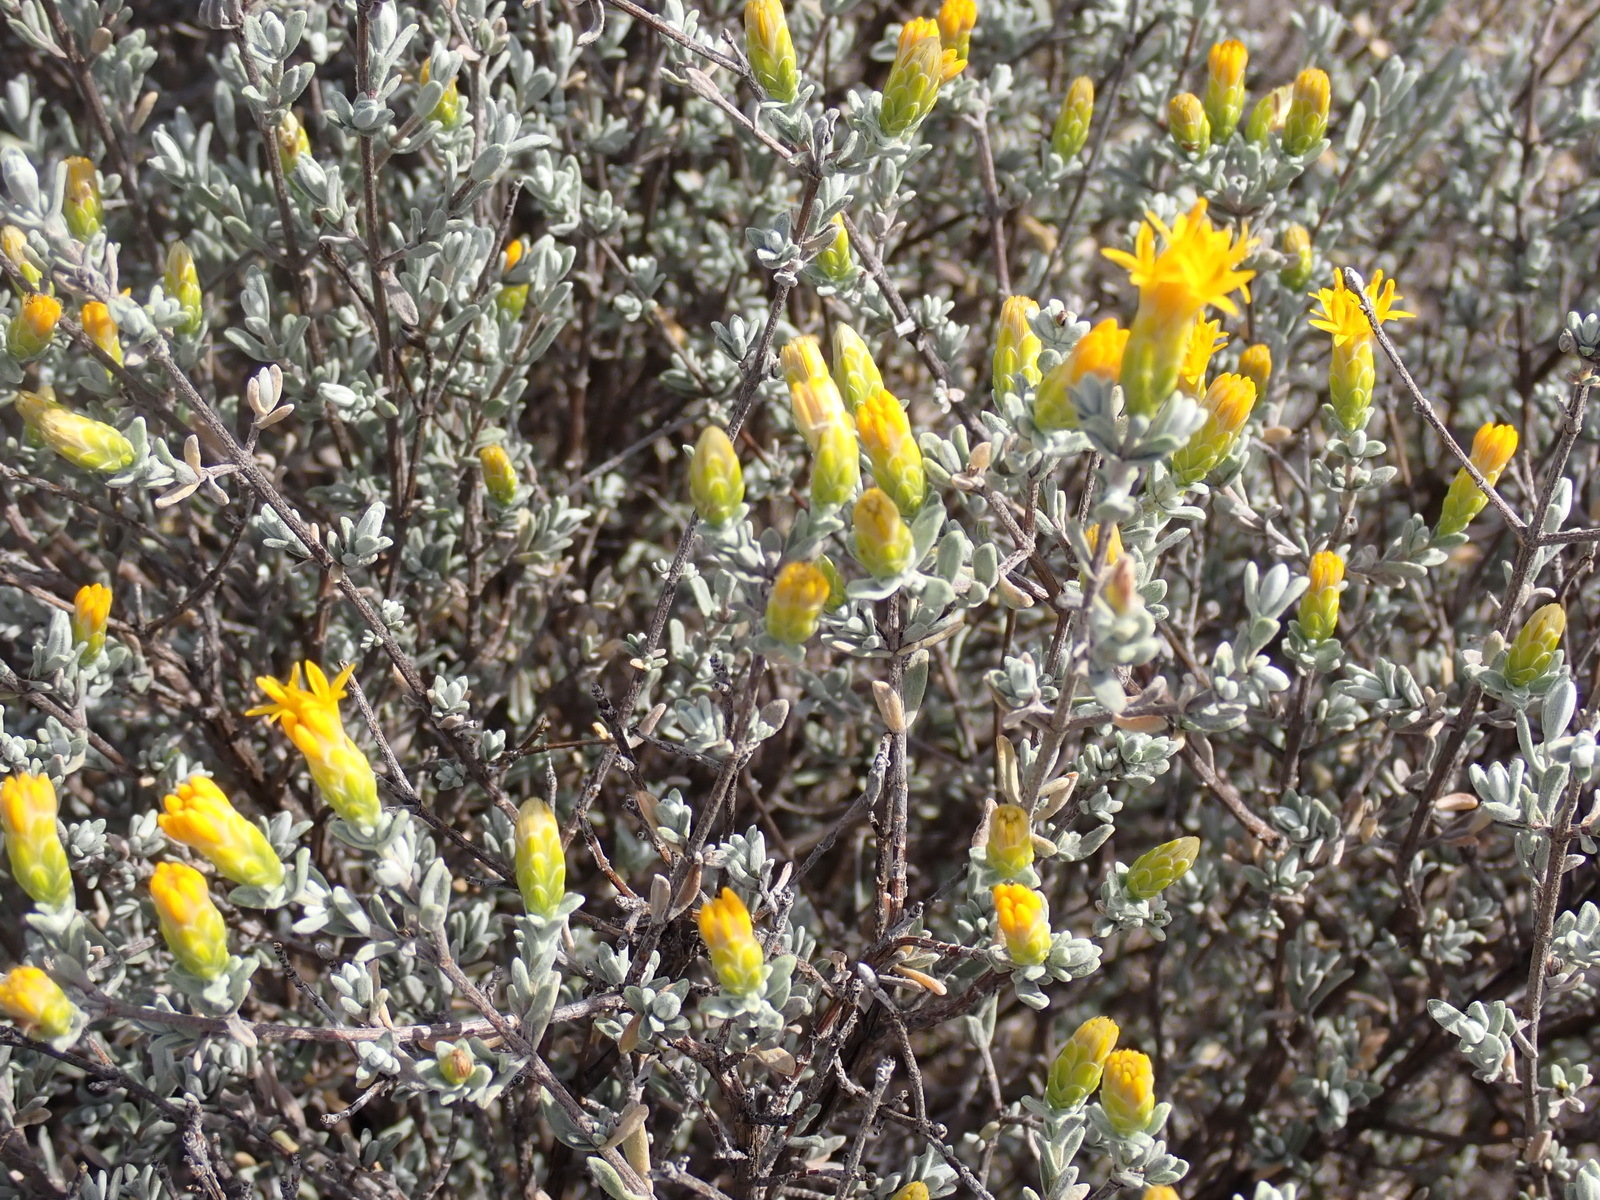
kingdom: Plantae
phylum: Tracheophyta
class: Magnoliopsida
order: Asterales
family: Asteraceae
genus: Pteronia
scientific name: Pteronia incana
